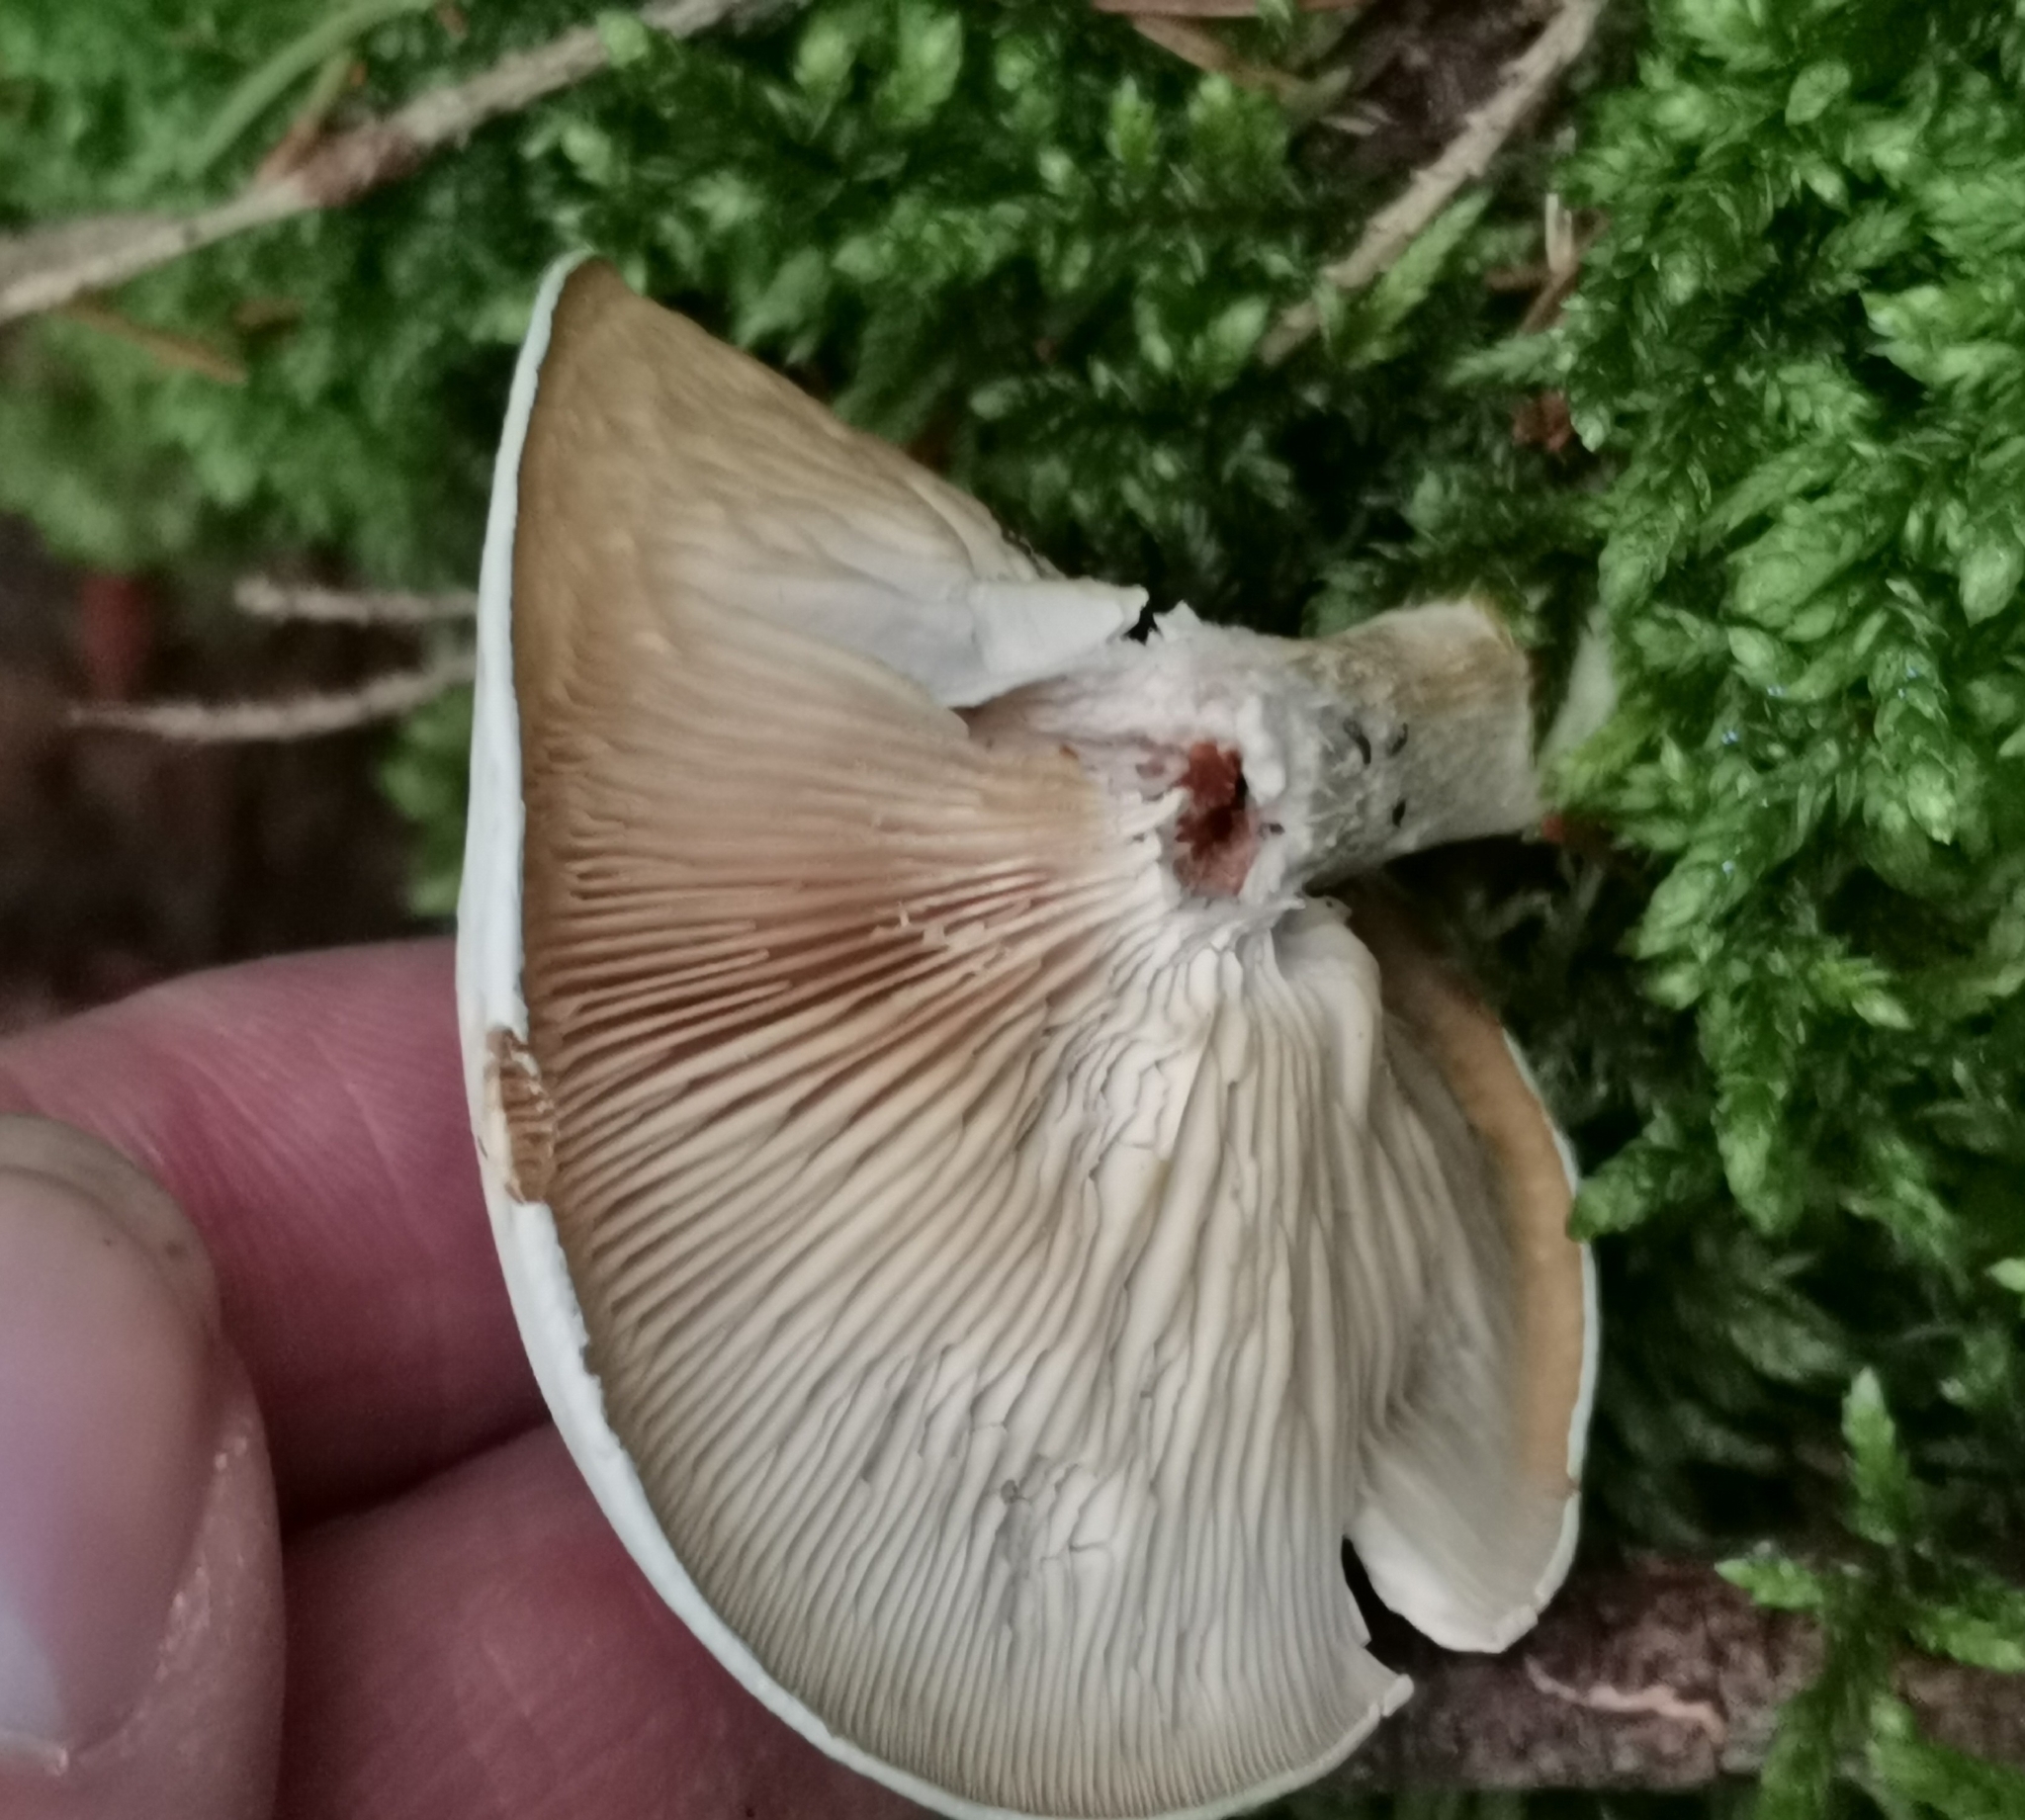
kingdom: Fungi
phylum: Basidiomycota
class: Agaricomycetes
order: Agaricales
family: Entolomataceae
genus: Clitopilus
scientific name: Clitopilus prunulus
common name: The miller
